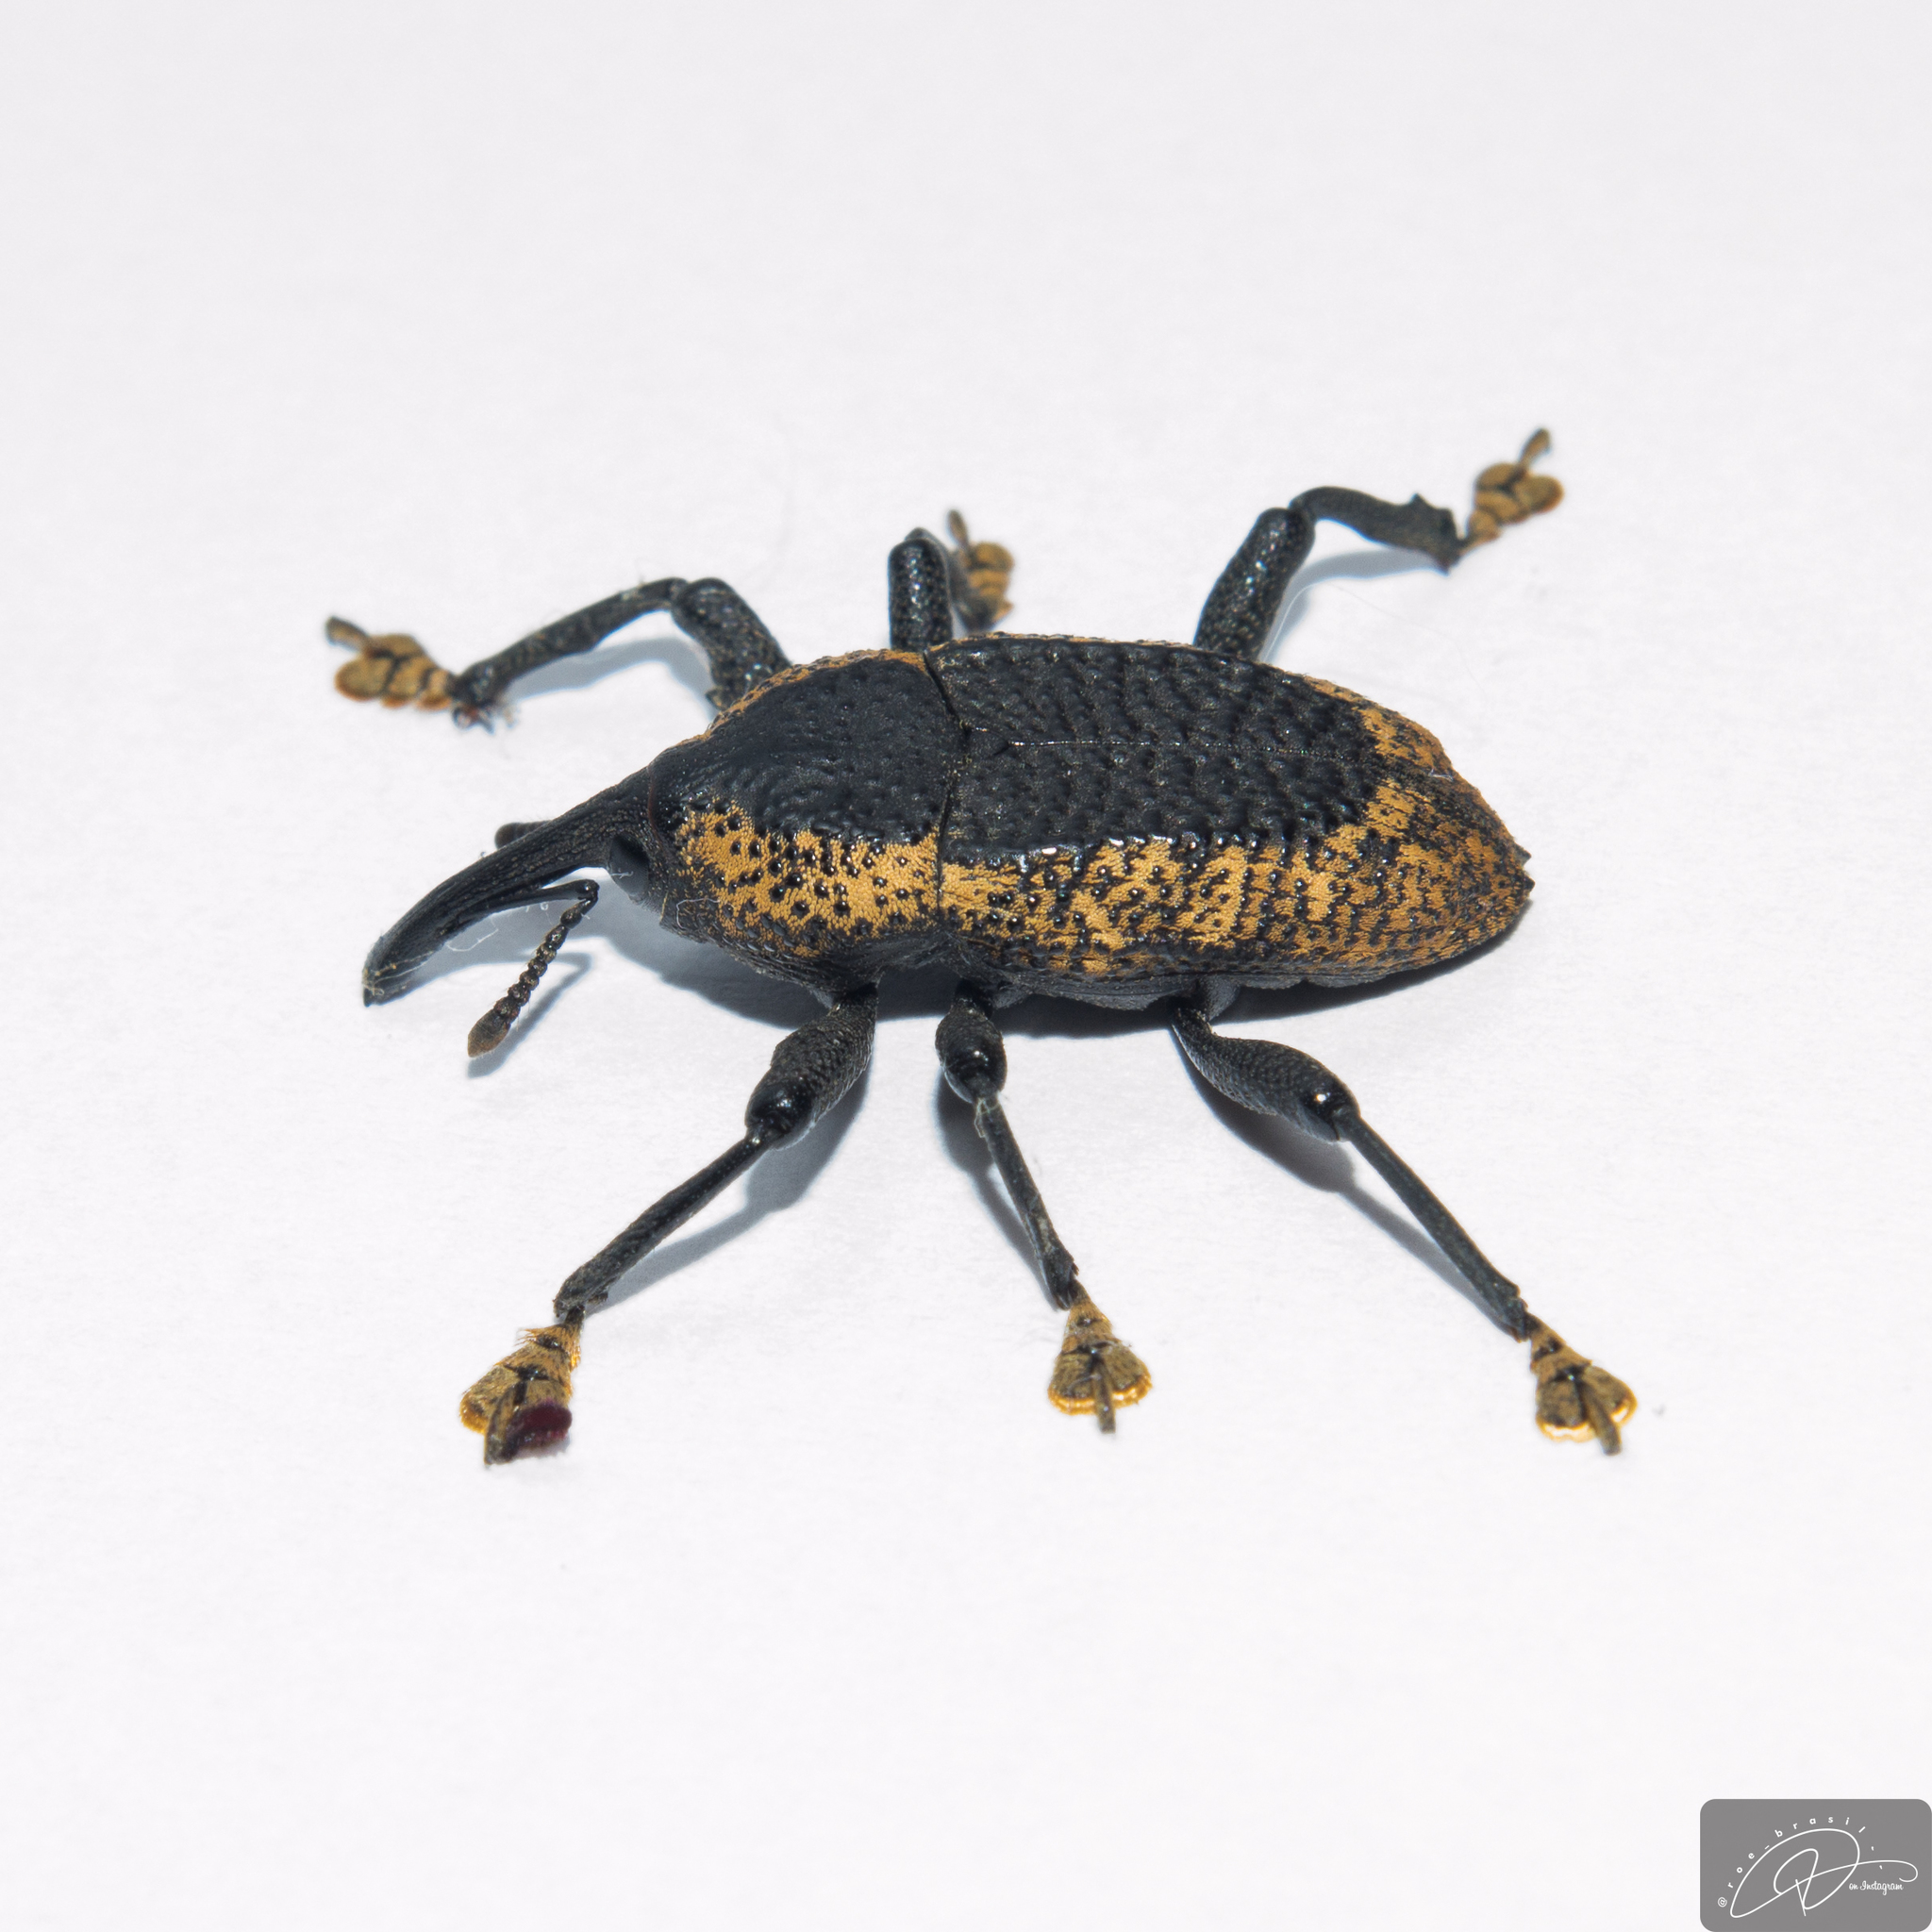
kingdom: Animalia
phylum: Arthropoda
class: Insecta
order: Coleoptera
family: Curculionidae
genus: Homalinotus
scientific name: Homalinotus deplanatus
